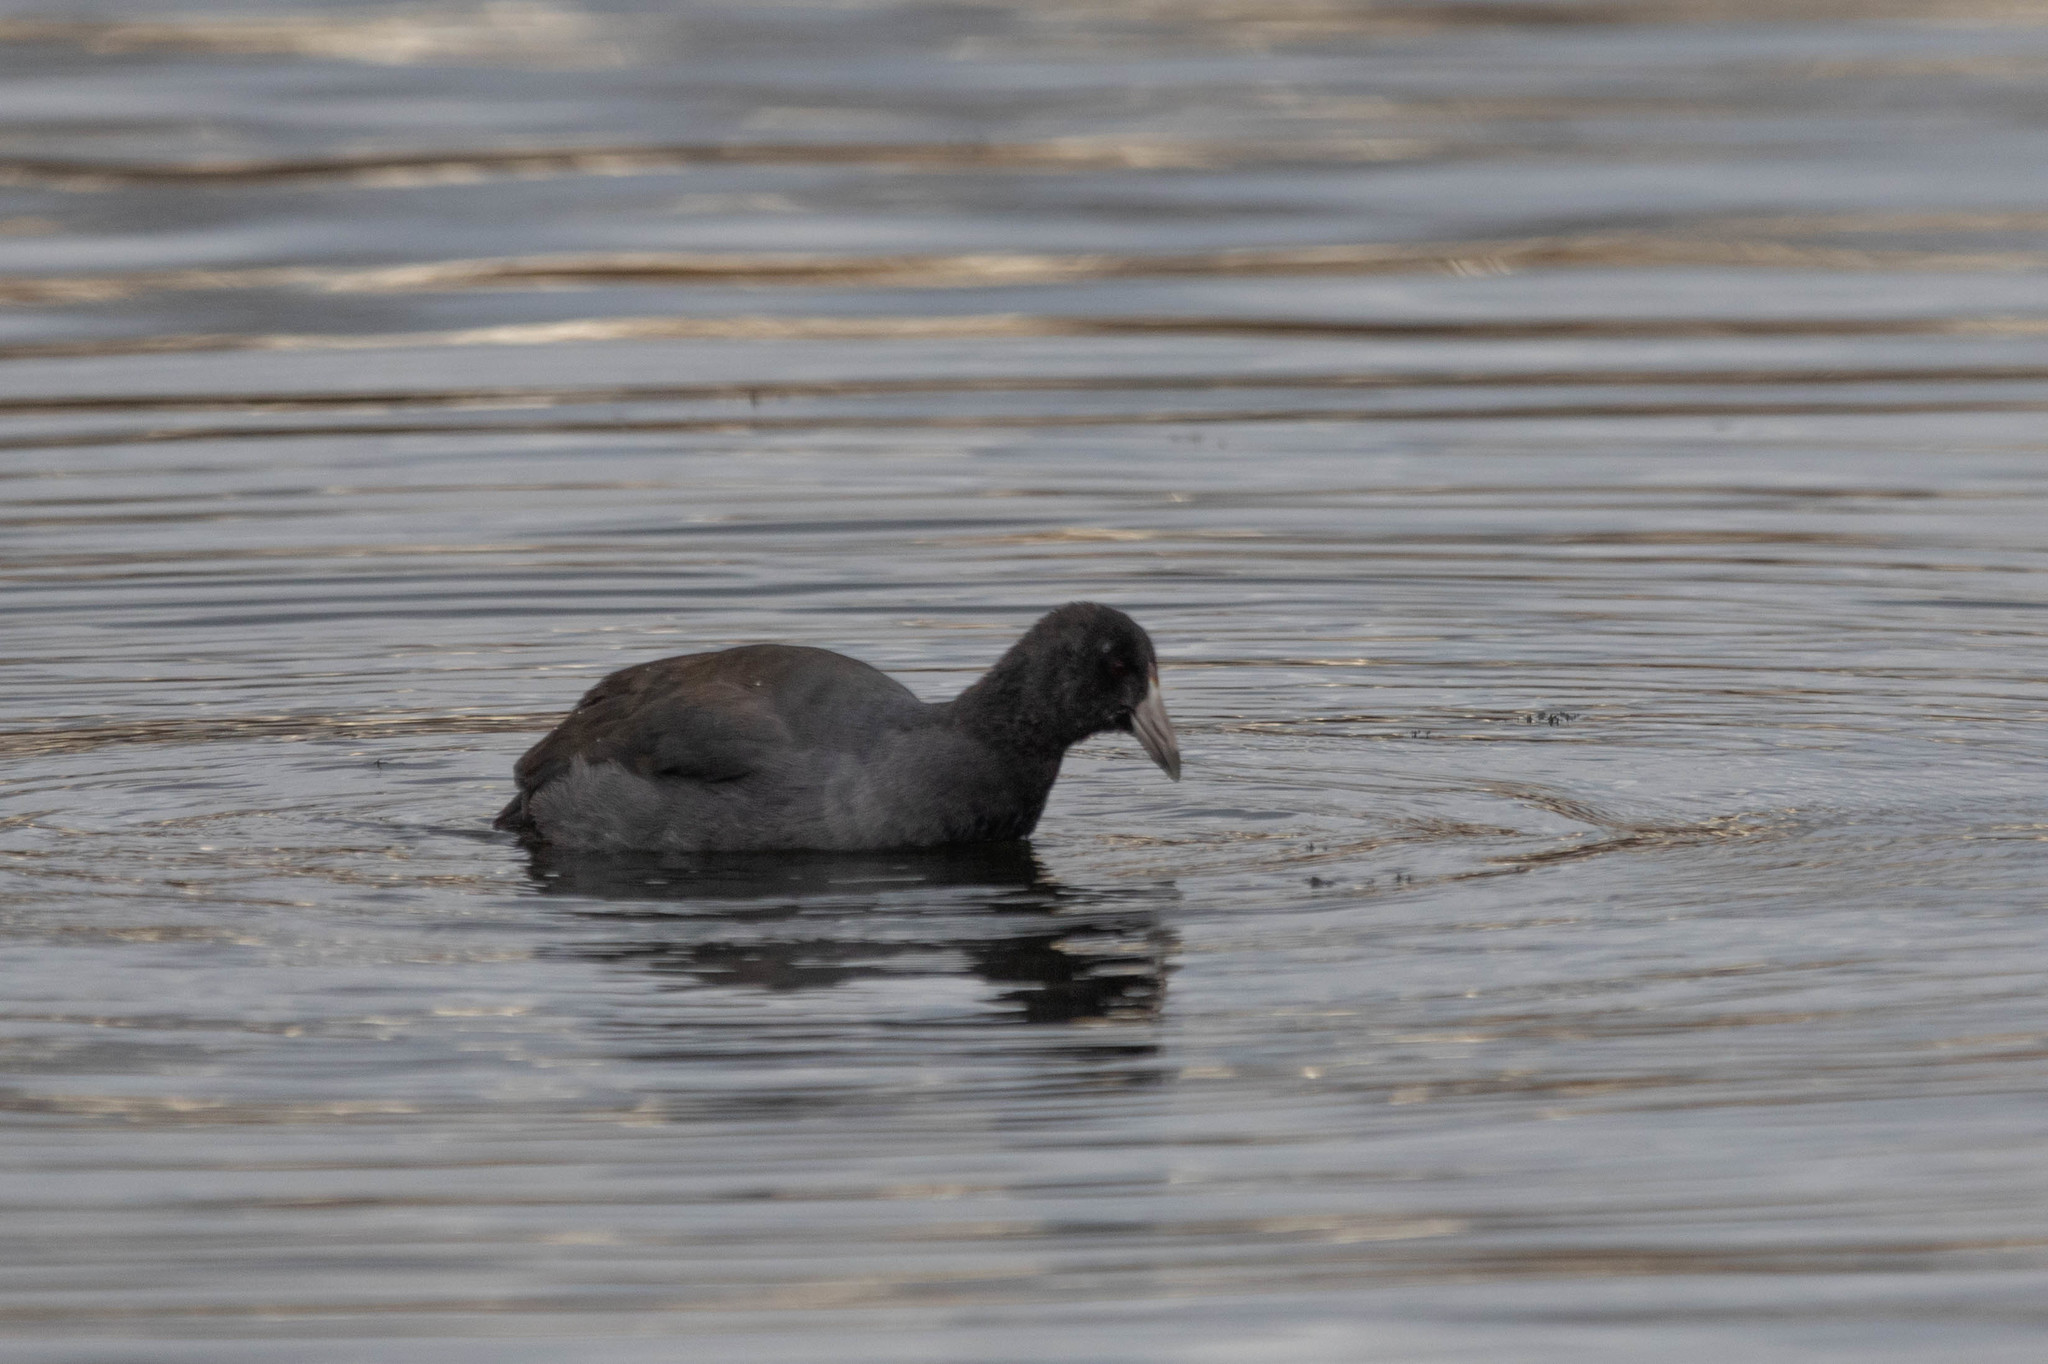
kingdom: Animalia
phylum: Chordata
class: Aves
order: Gruiformes
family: Rallidae
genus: Fulica
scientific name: Fulica americana
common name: American coot
